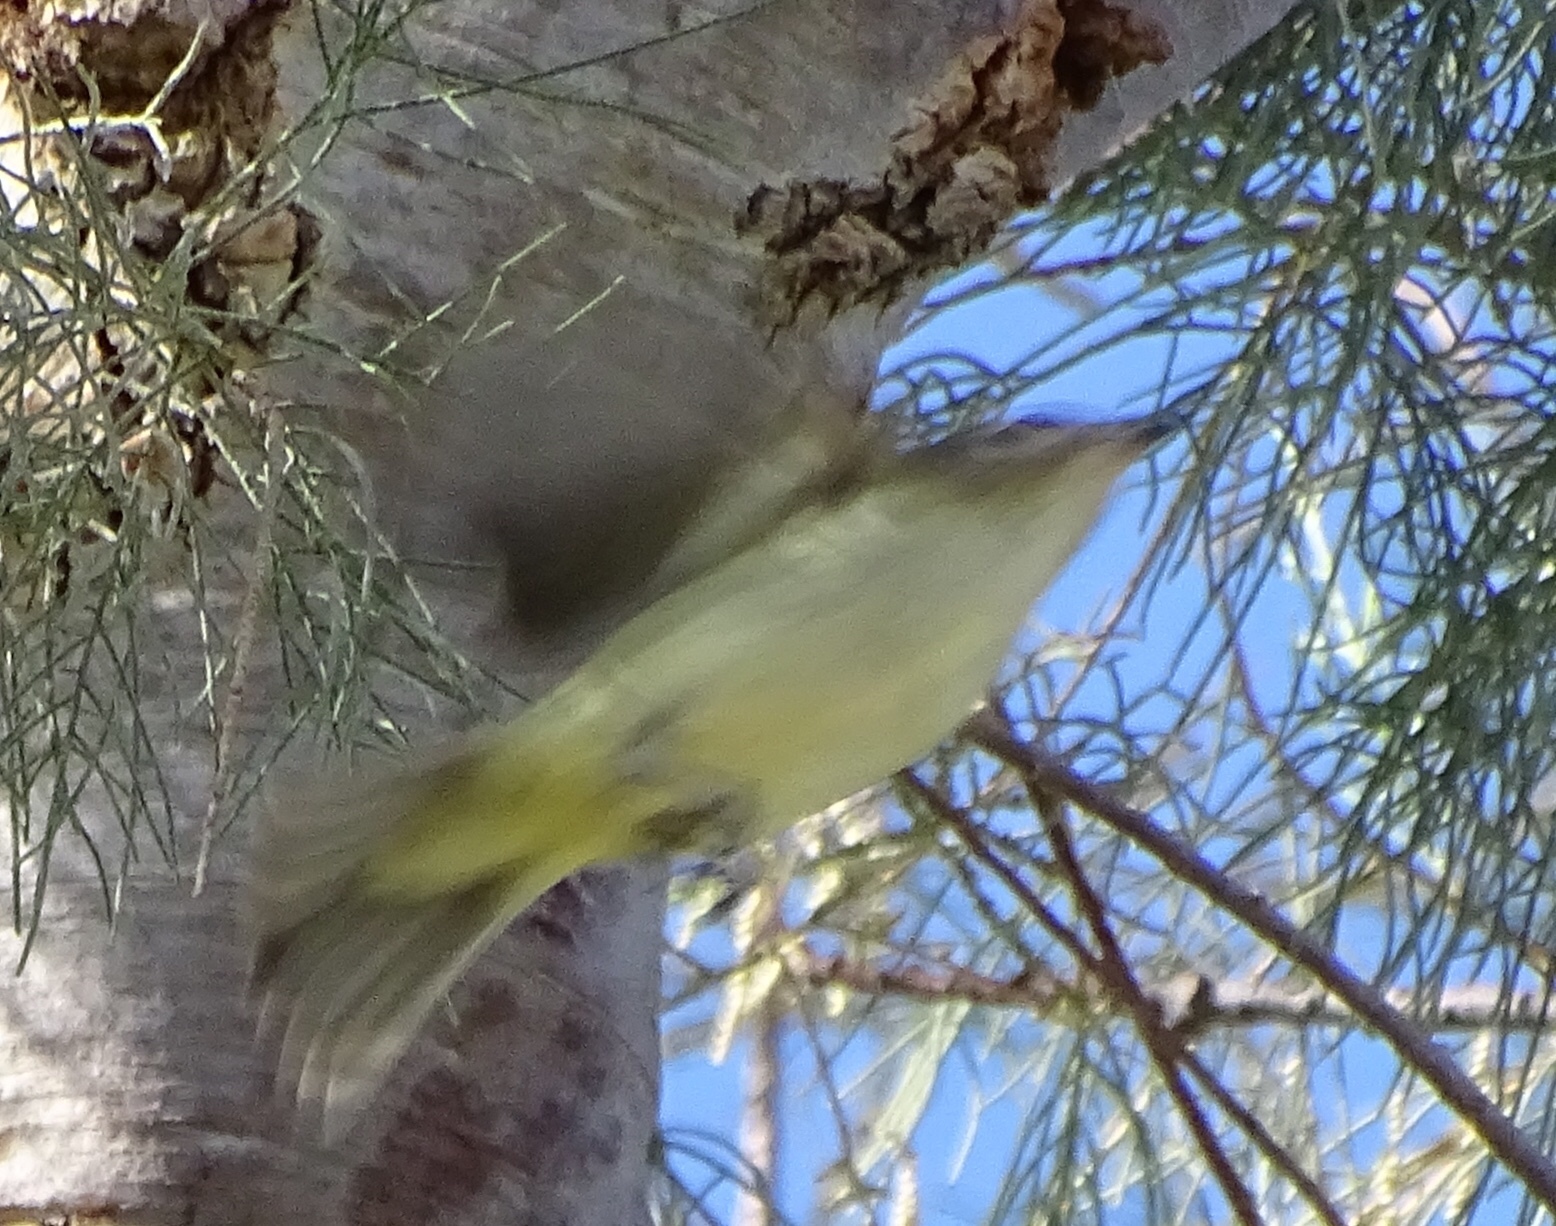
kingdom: Animalia
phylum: Chordata
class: Aves
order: Passeriformes
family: Vireonidae
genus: Vireo
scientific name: Vireo gilvus
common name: Warbling vireo
